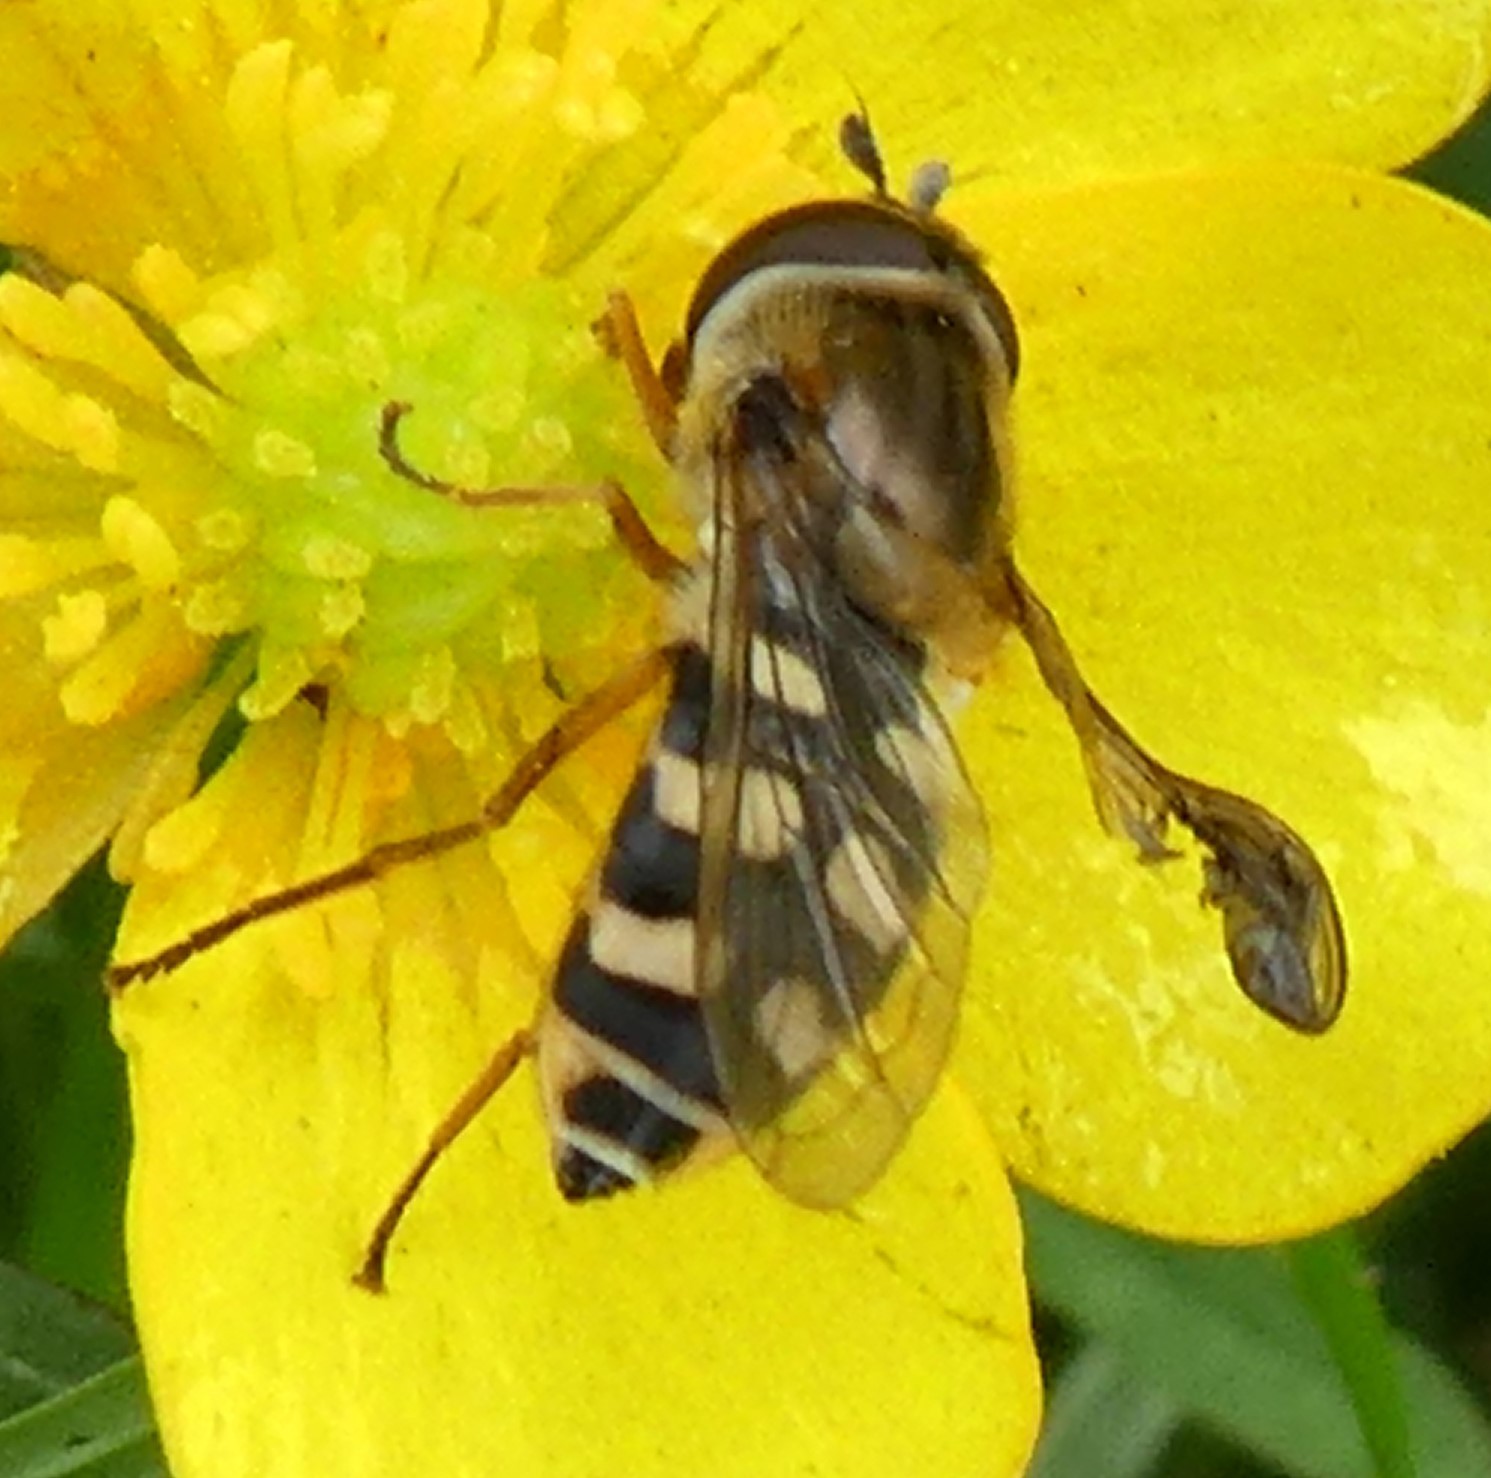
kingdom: Animalia
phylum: Arthropoda
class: Insecta
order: Diptera
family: Syrphidae
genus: Eupeodes
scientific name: Eupeodes corollae
